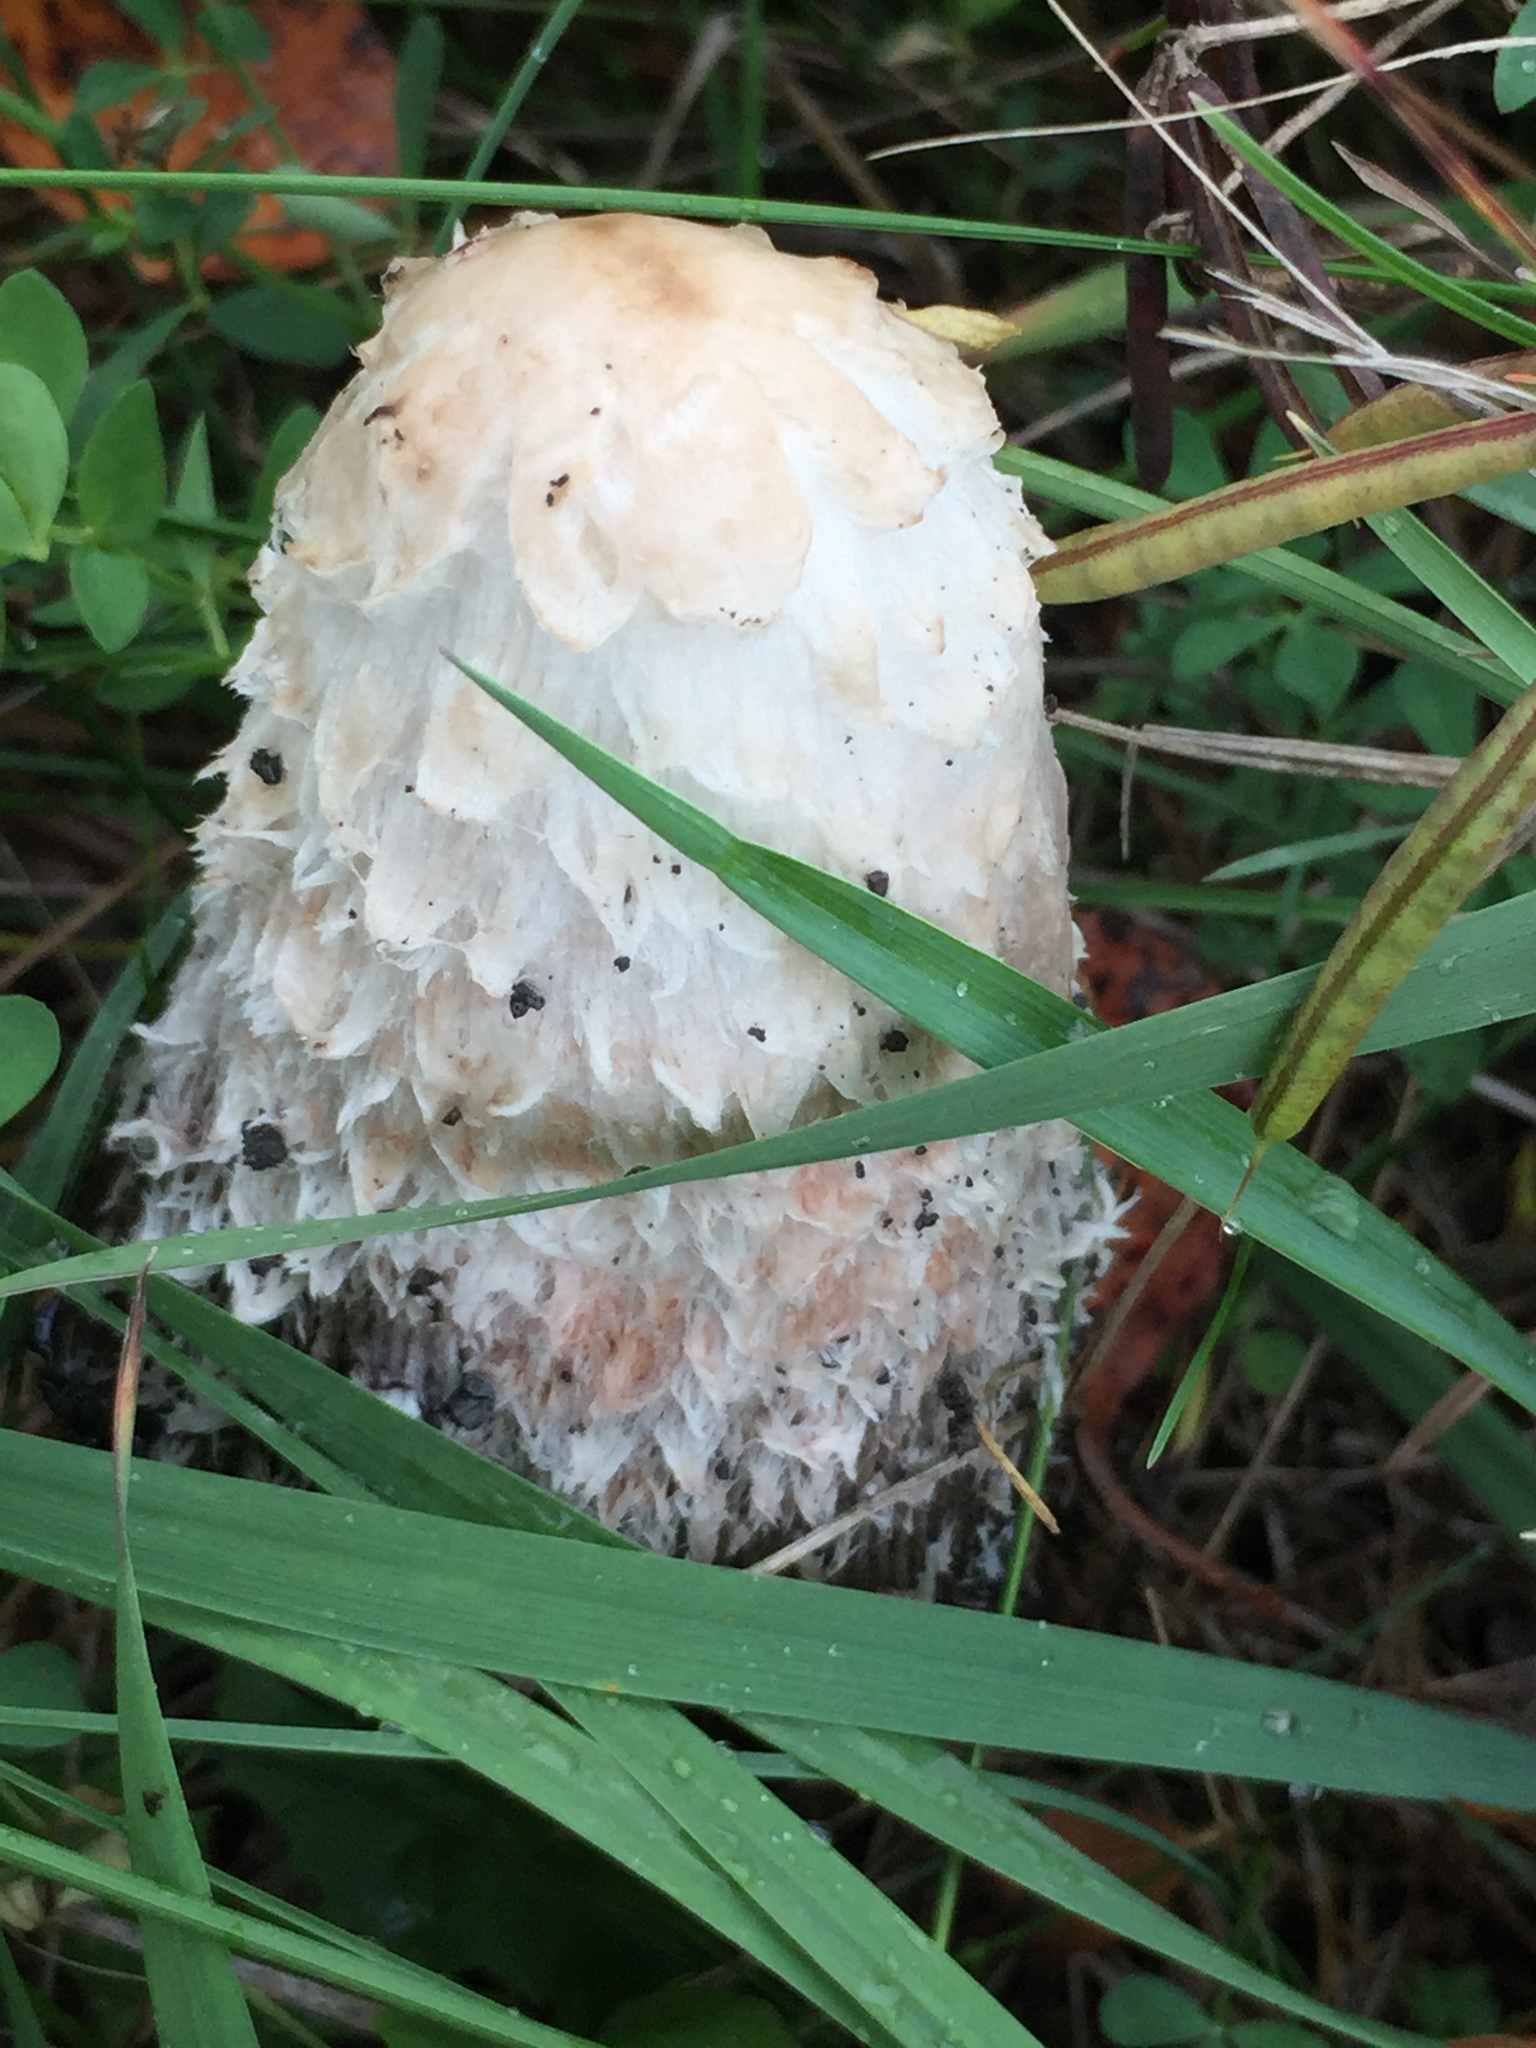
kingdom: Fungi
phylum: Basidiomycota
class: Agaricomycetes
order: Agaricales
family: Agaricaceae
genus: Coprinus
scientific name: Coprinus comatus
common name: Lawyer's wig
